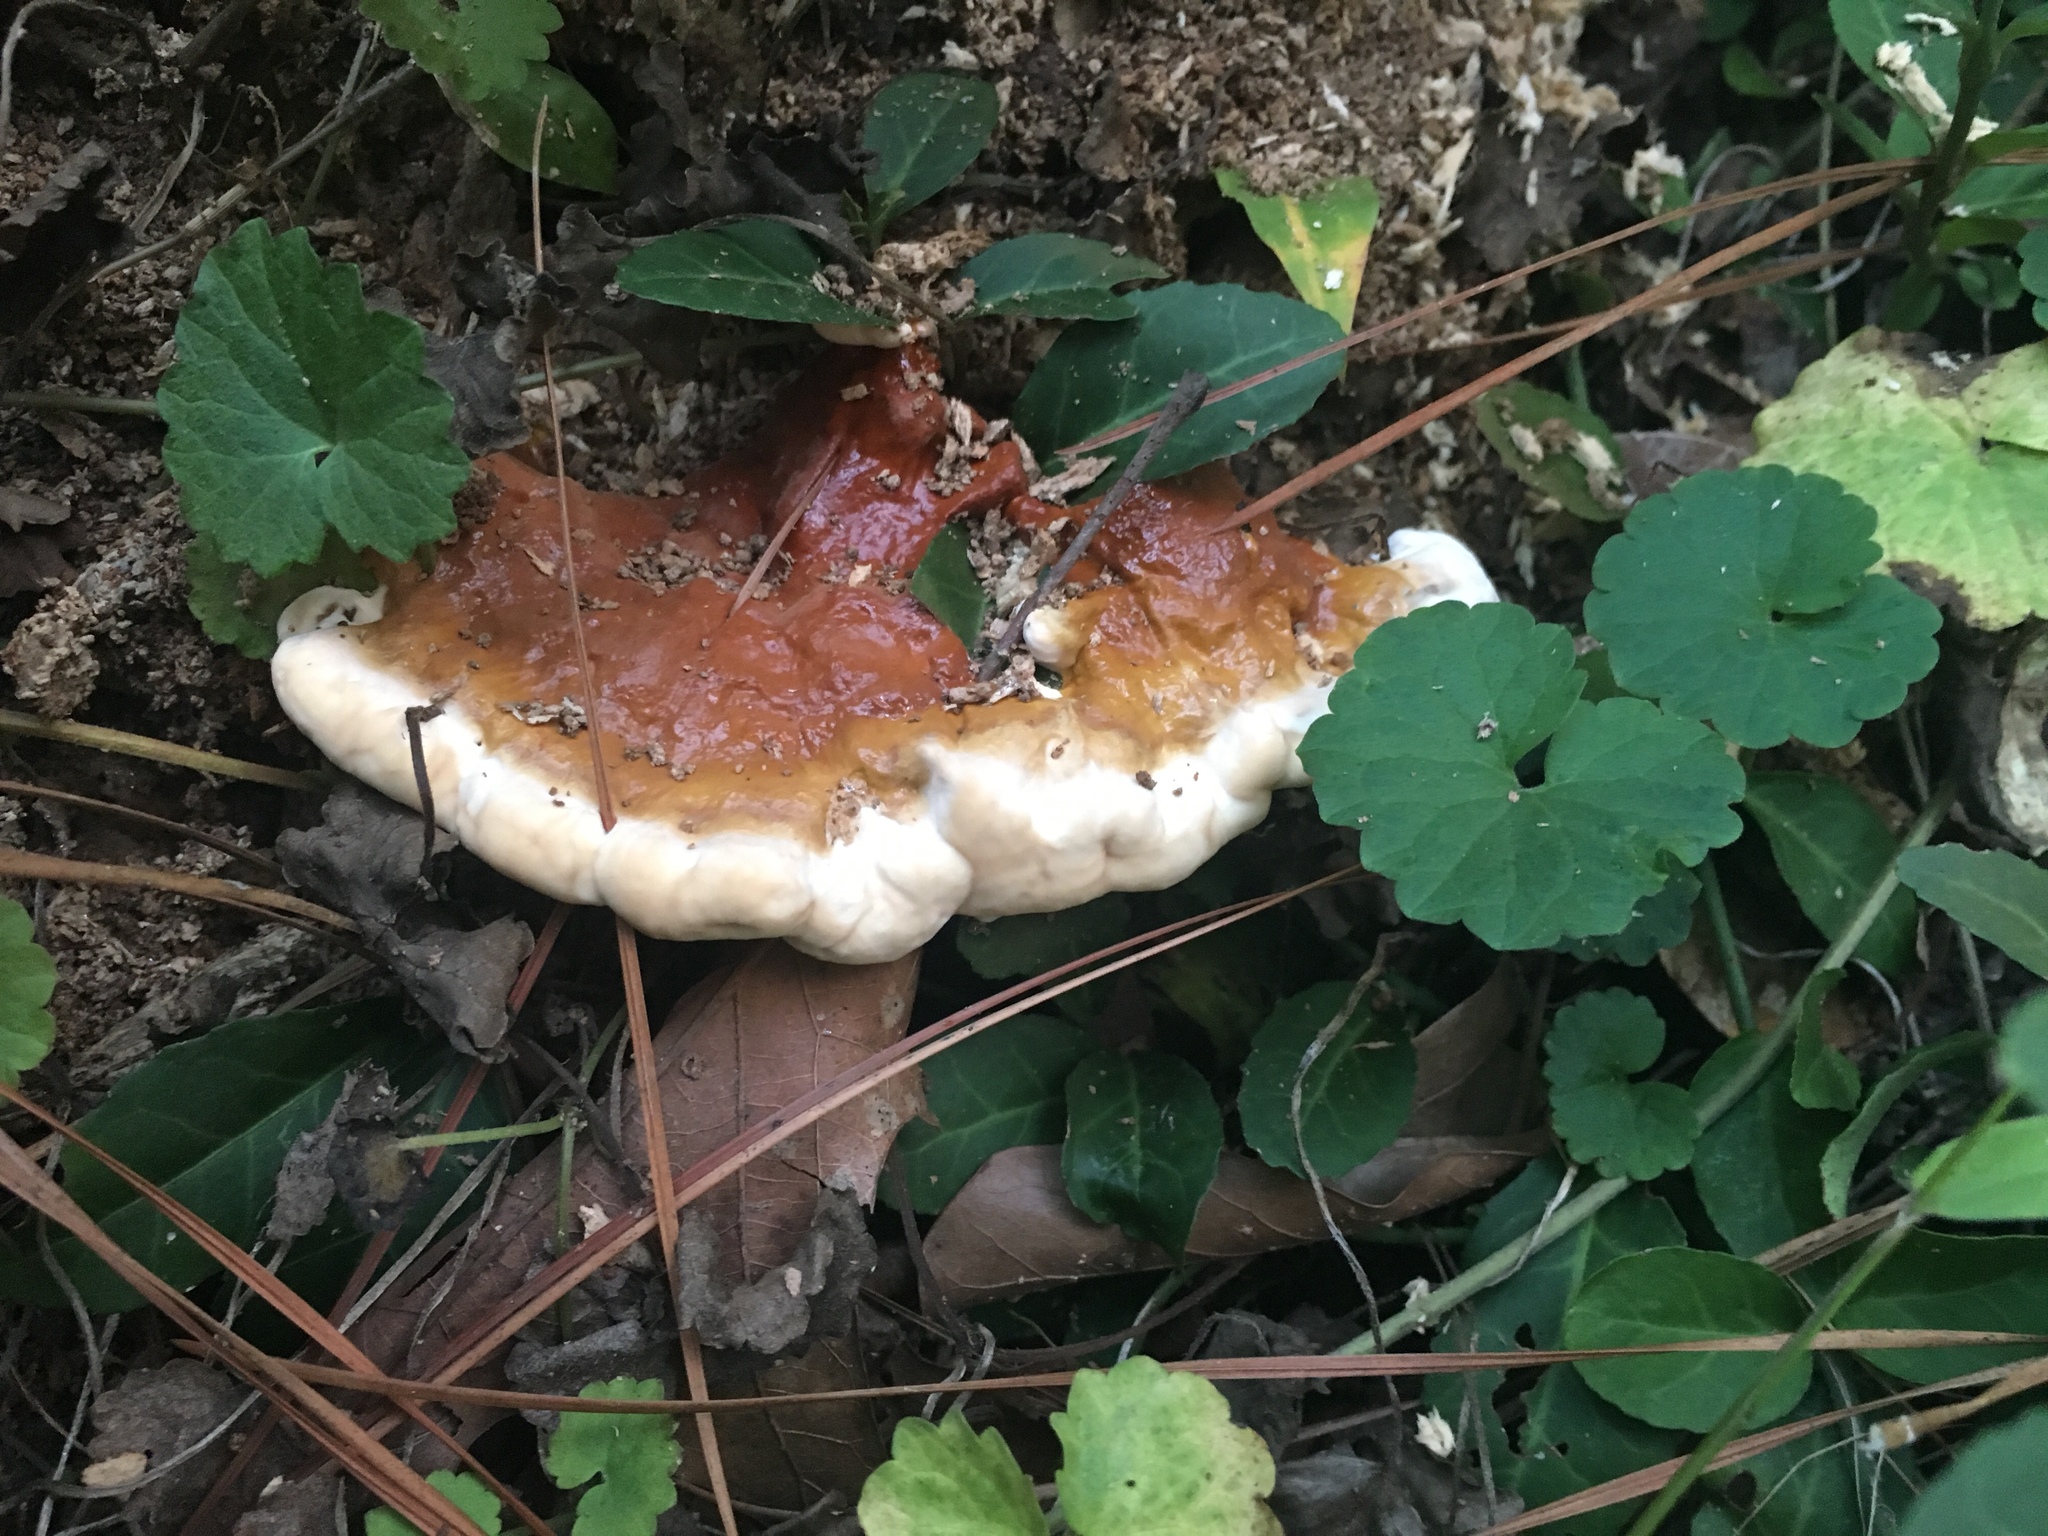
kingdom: Fungi
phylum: Basidiomycota
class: Agaricomycetes
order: Polyporales
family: Polyporaceae
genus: Ganoderma
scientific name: Ganoderma resinaceum
